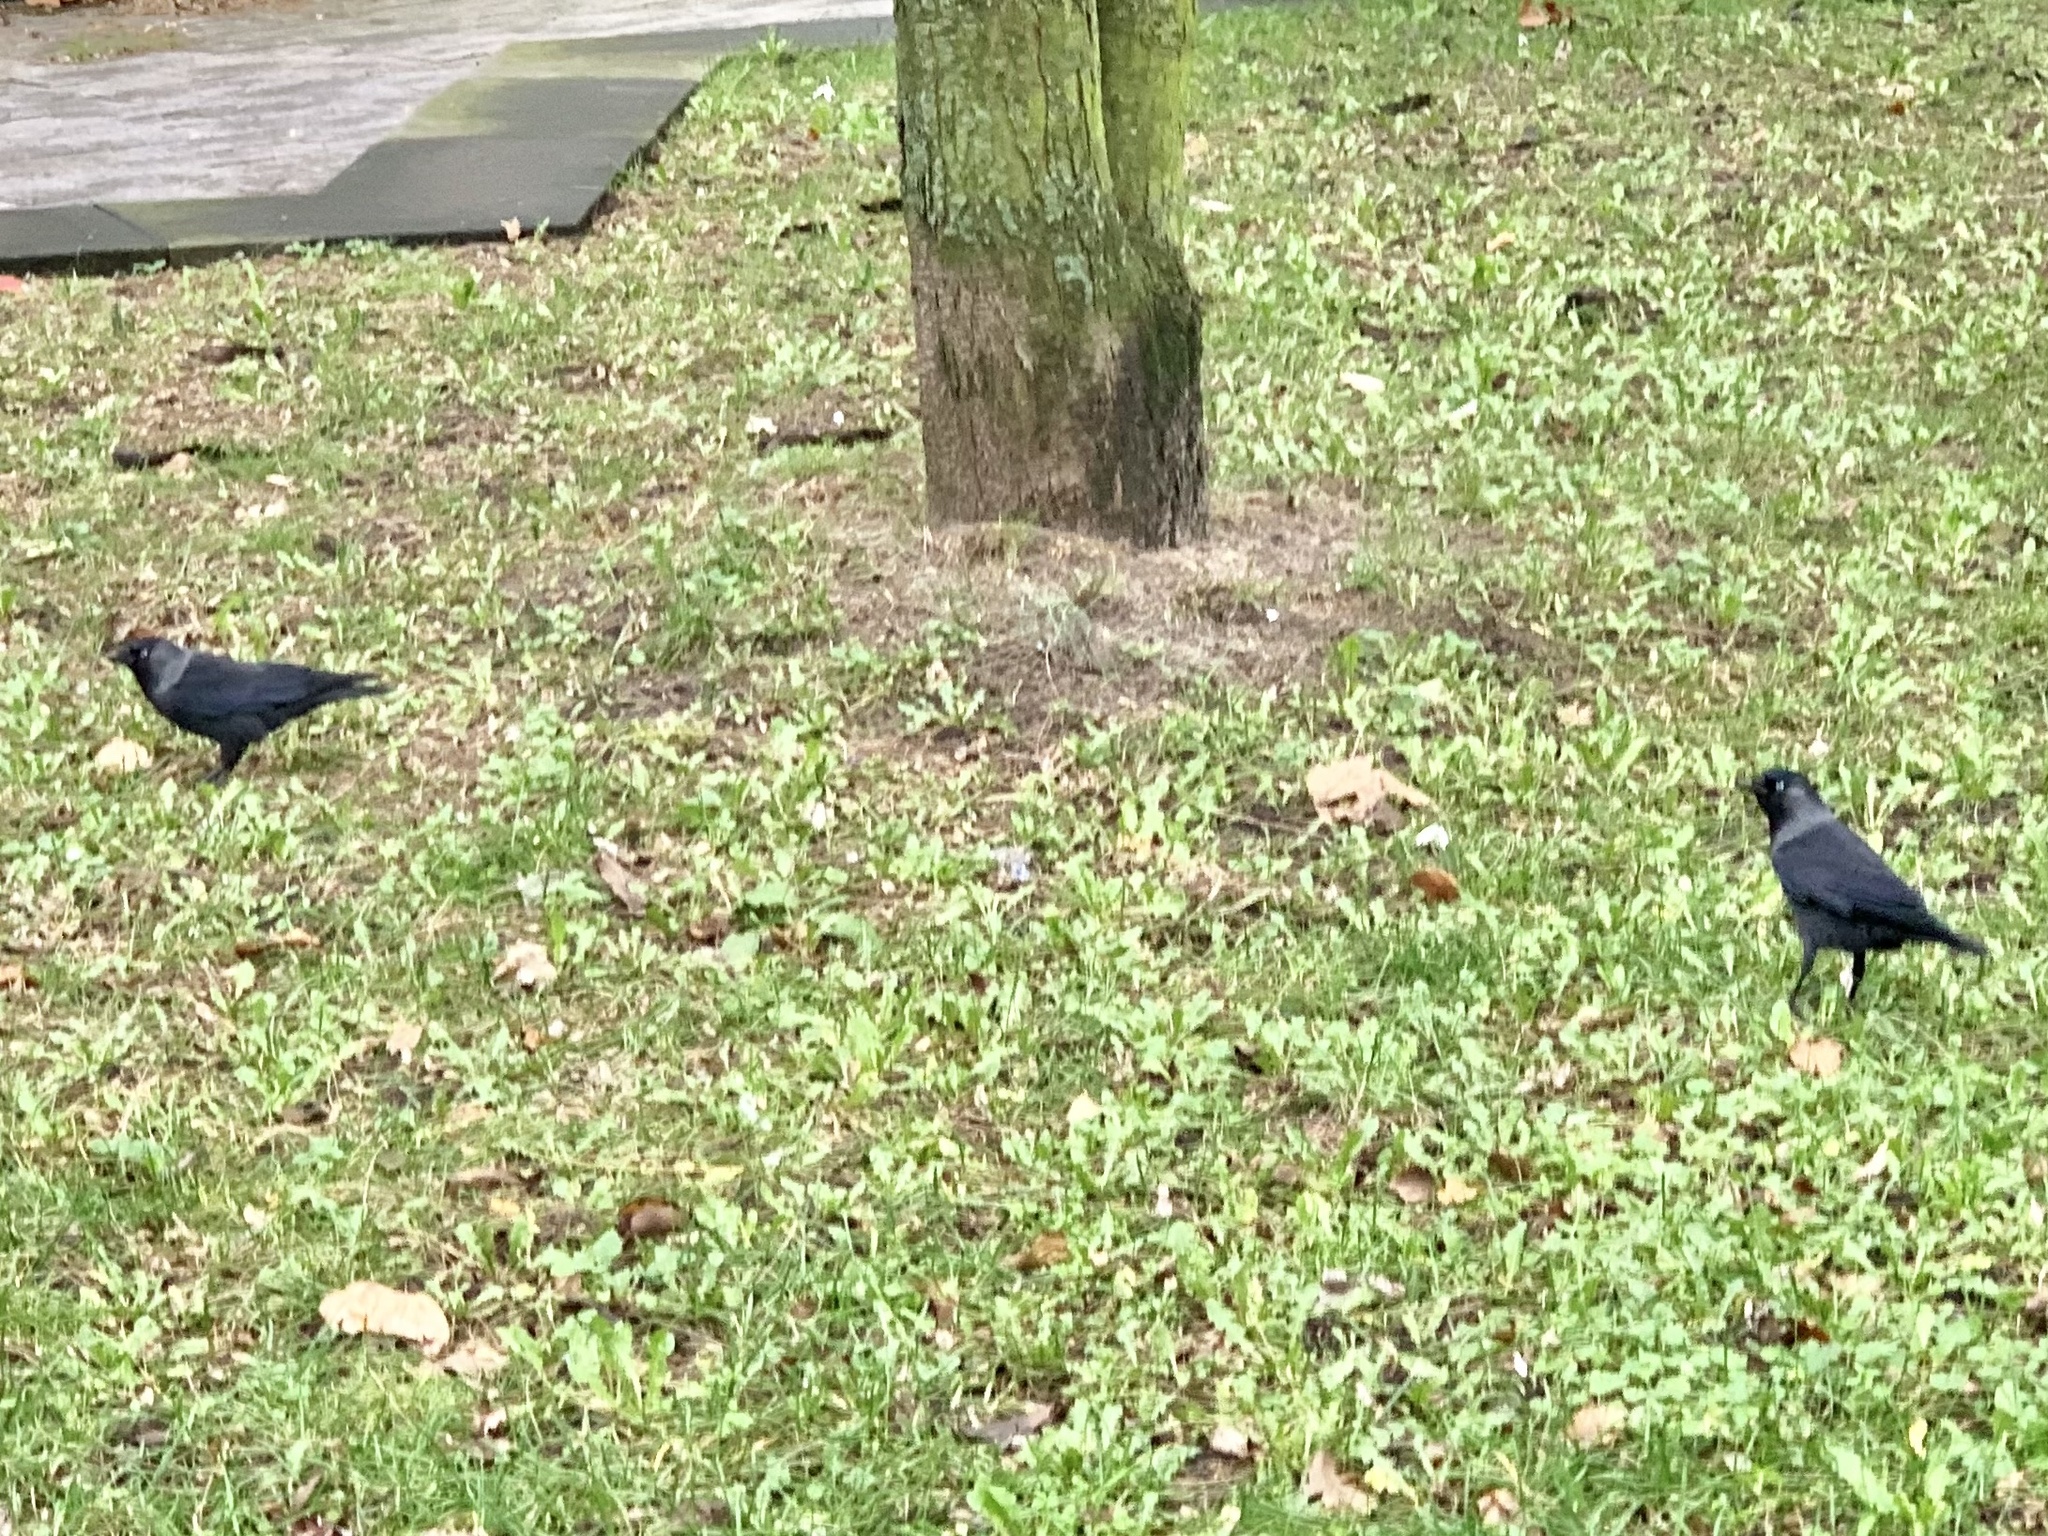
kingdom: Animalia
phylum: Chordata
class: Aves
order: Passeriformes
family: Corvidae
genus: Coloeus
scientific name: Coloeus monedula
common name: Western jackdaw
